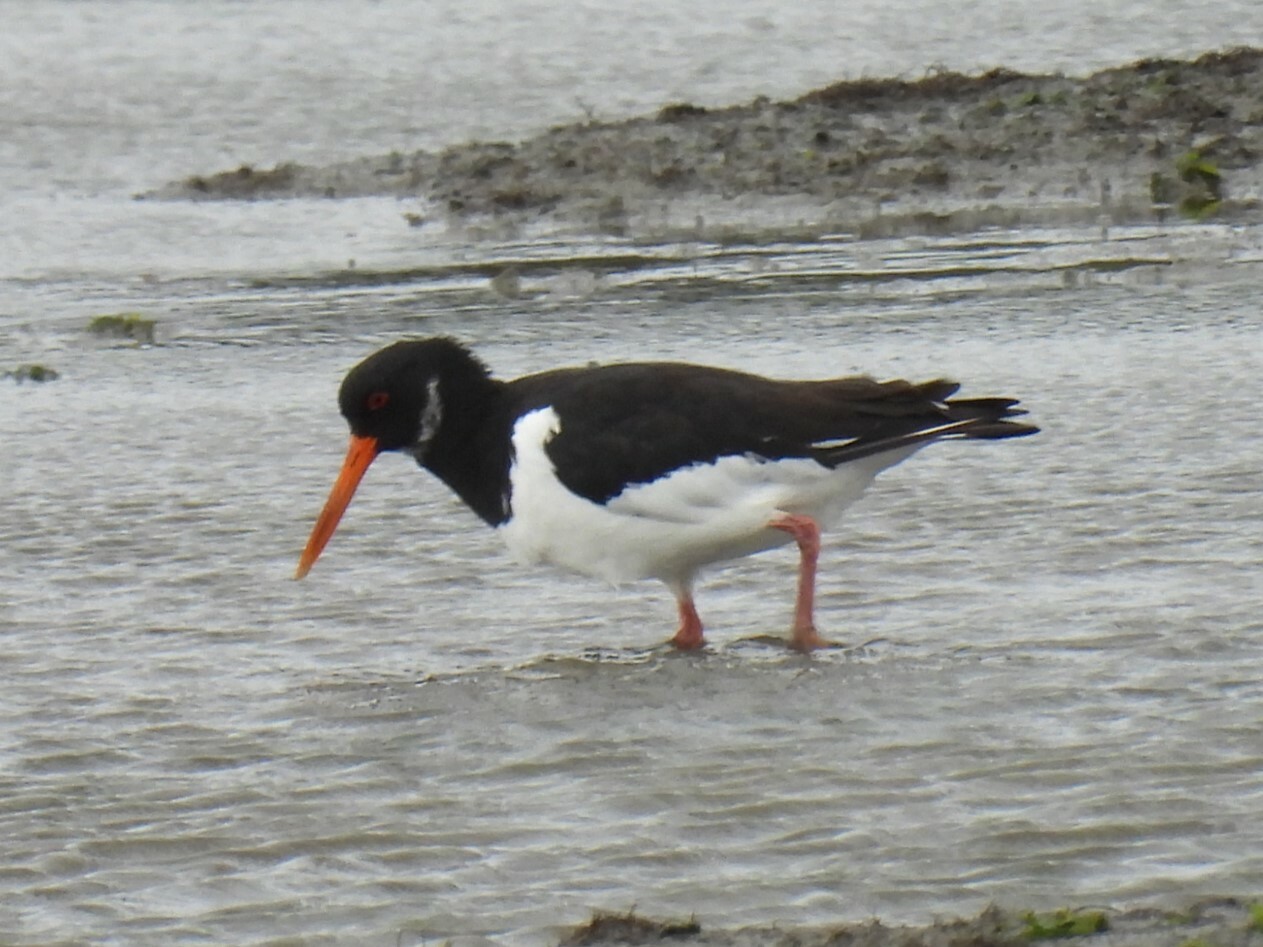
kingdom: Animalia
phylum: Chordata
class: Aves
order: Charadriiformes
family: Haematopodidae
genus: Haematopus
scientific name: Haematopus ostralegus
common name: Eurasian oystercatcher
